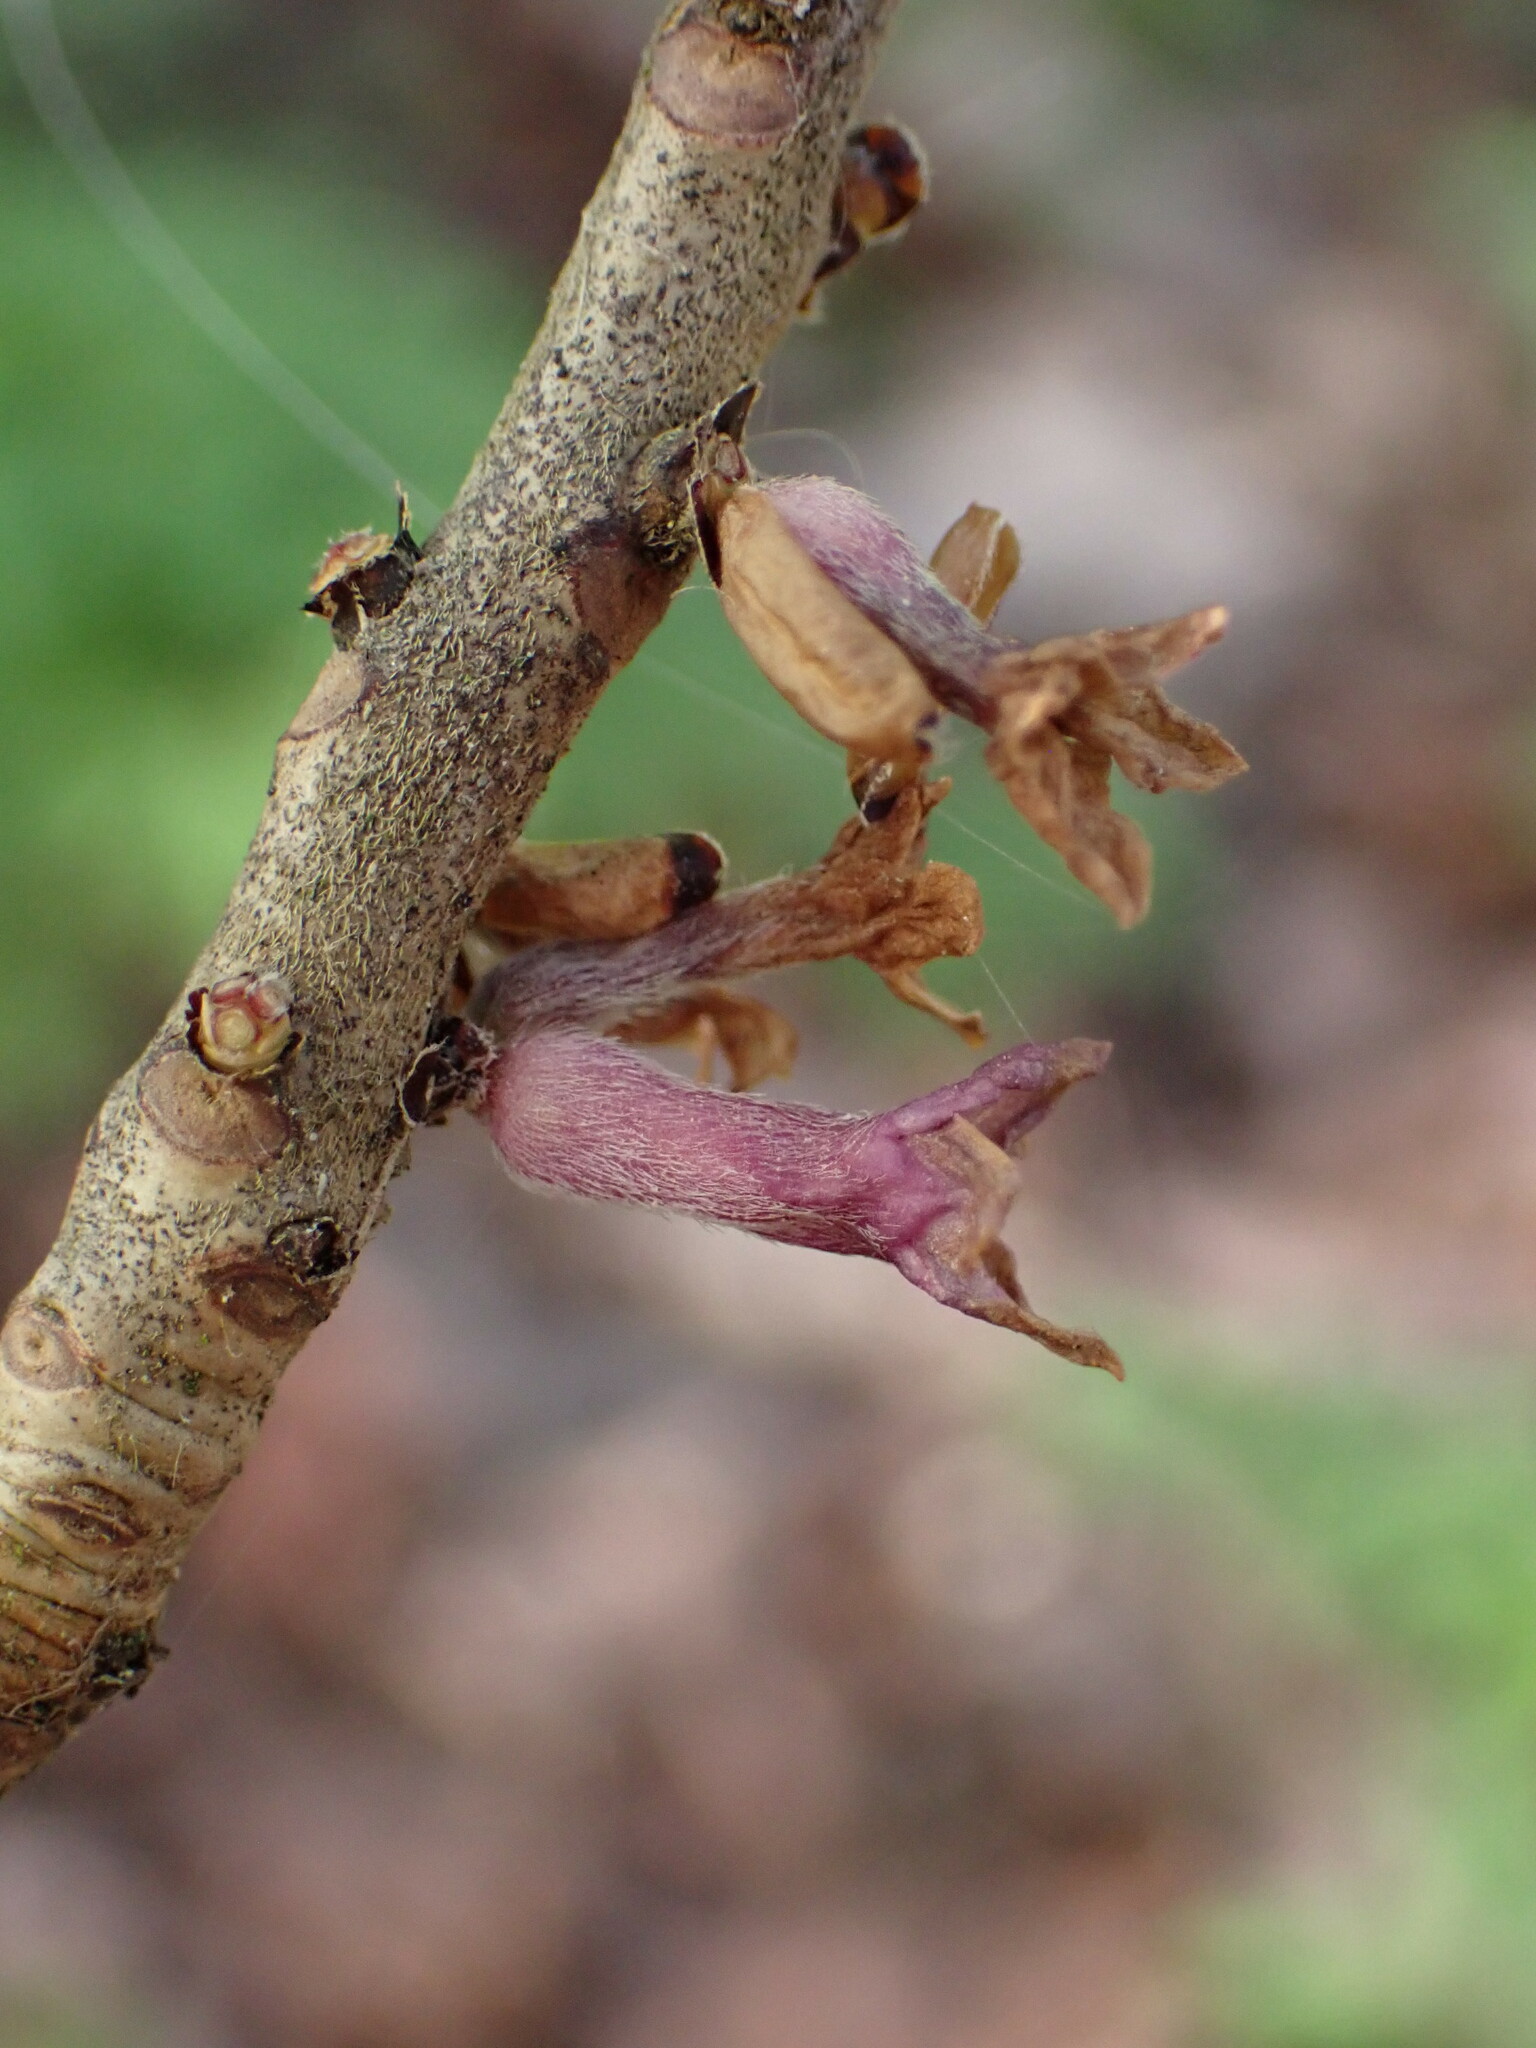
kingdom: Plantae
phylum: Tracheophyta
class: Magnoliopsida
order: Malvales
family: Thymelaeaceae
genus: Daphne
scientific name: Daphne mezereum
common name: Mezereon
